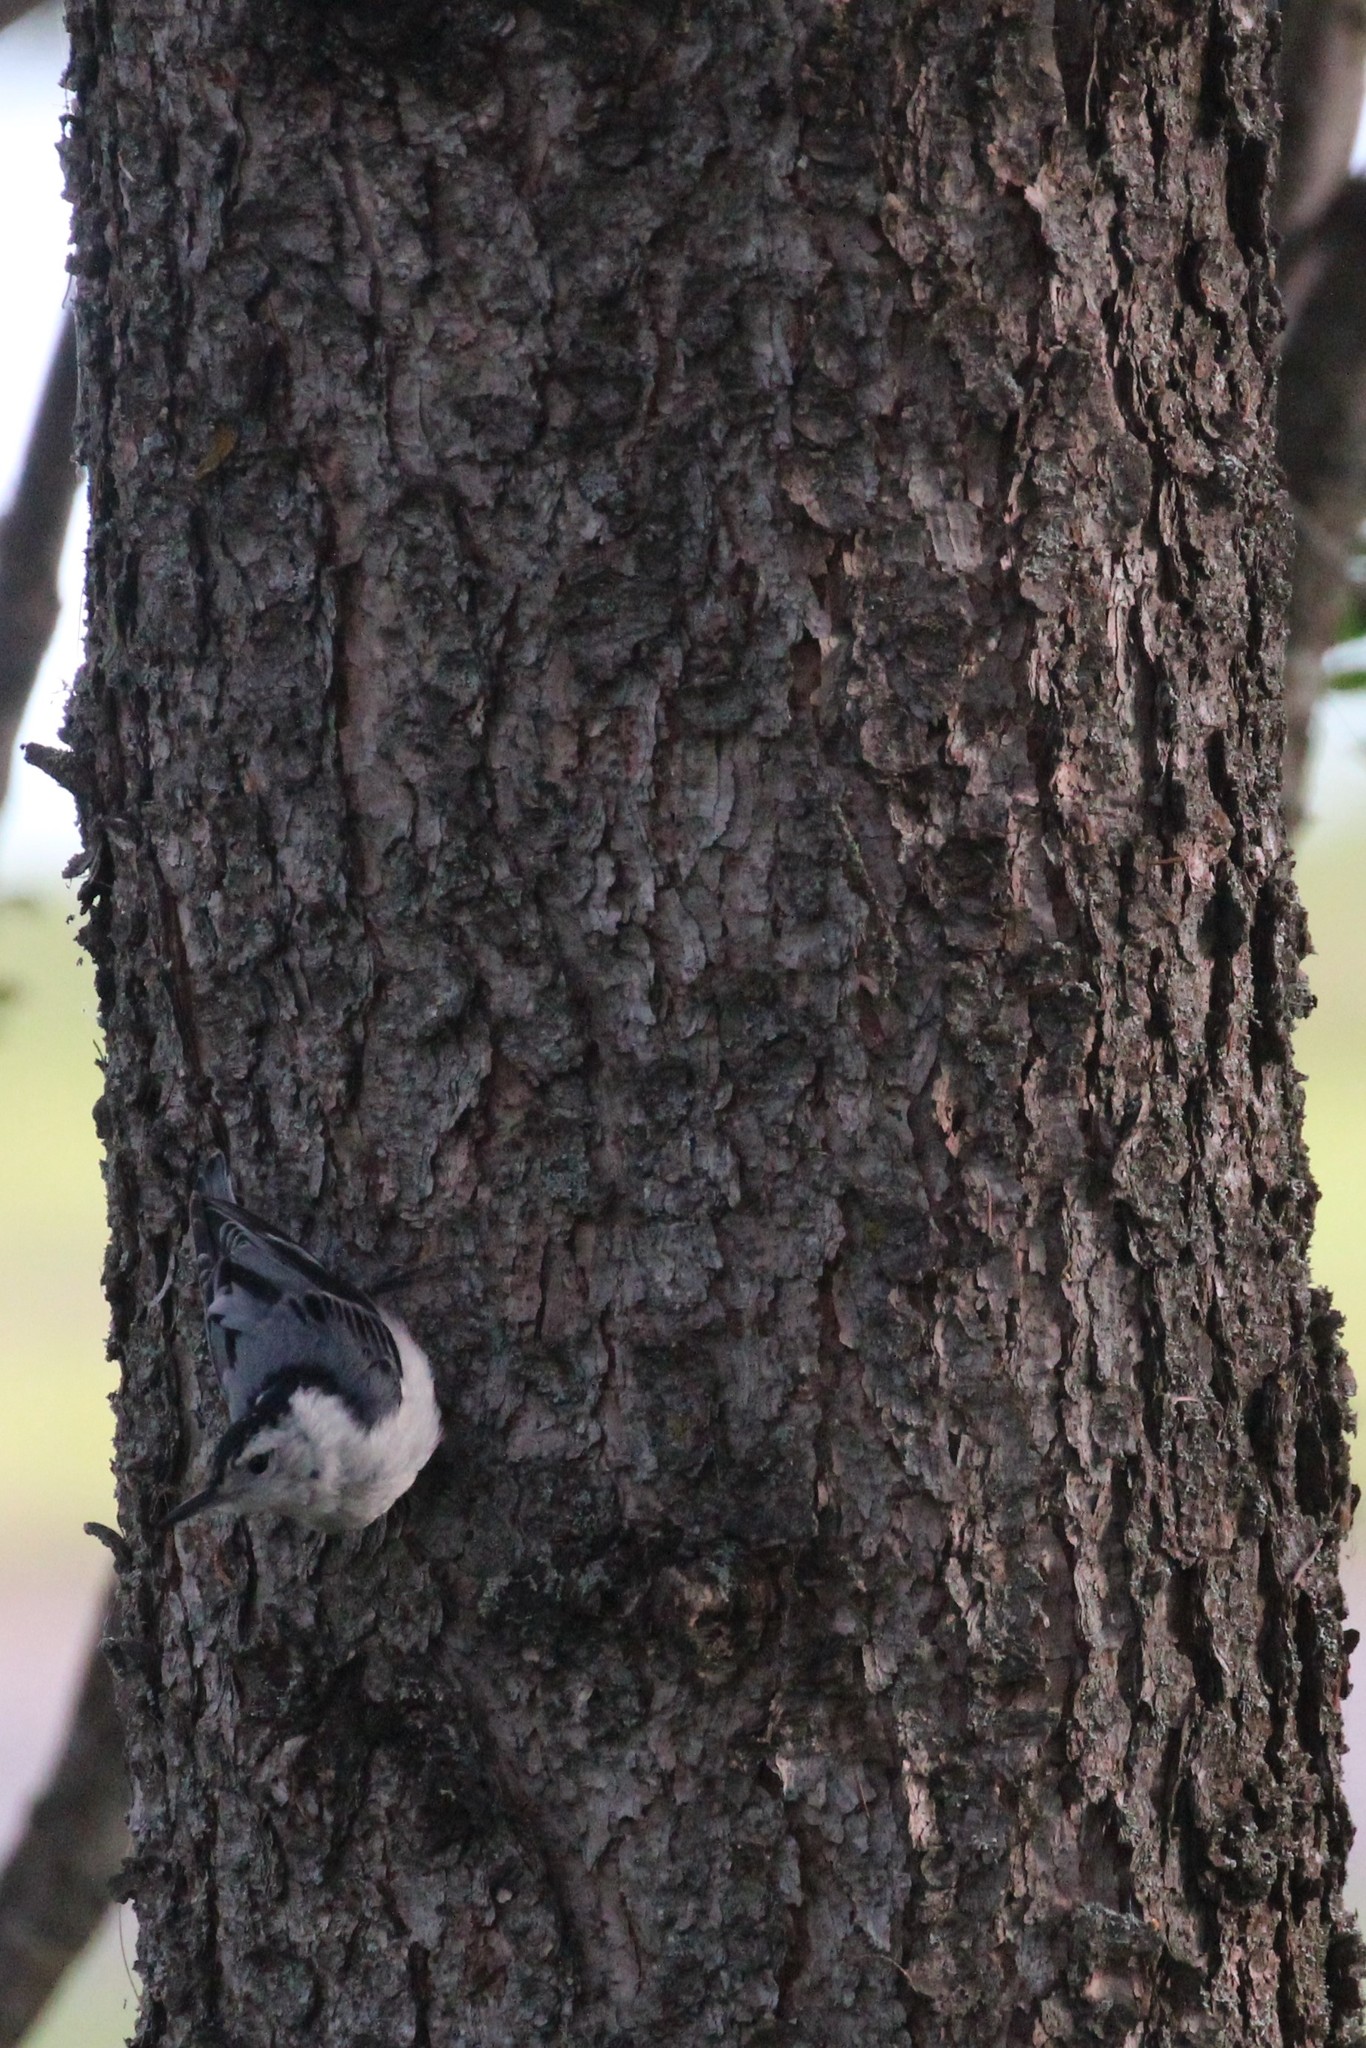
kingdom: Animalia
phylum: Chordata
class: Aves
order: Passeriformes
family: Sittidae
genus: Sitta
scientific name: Sitta carolinensis
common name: White-breasted nuthatch
